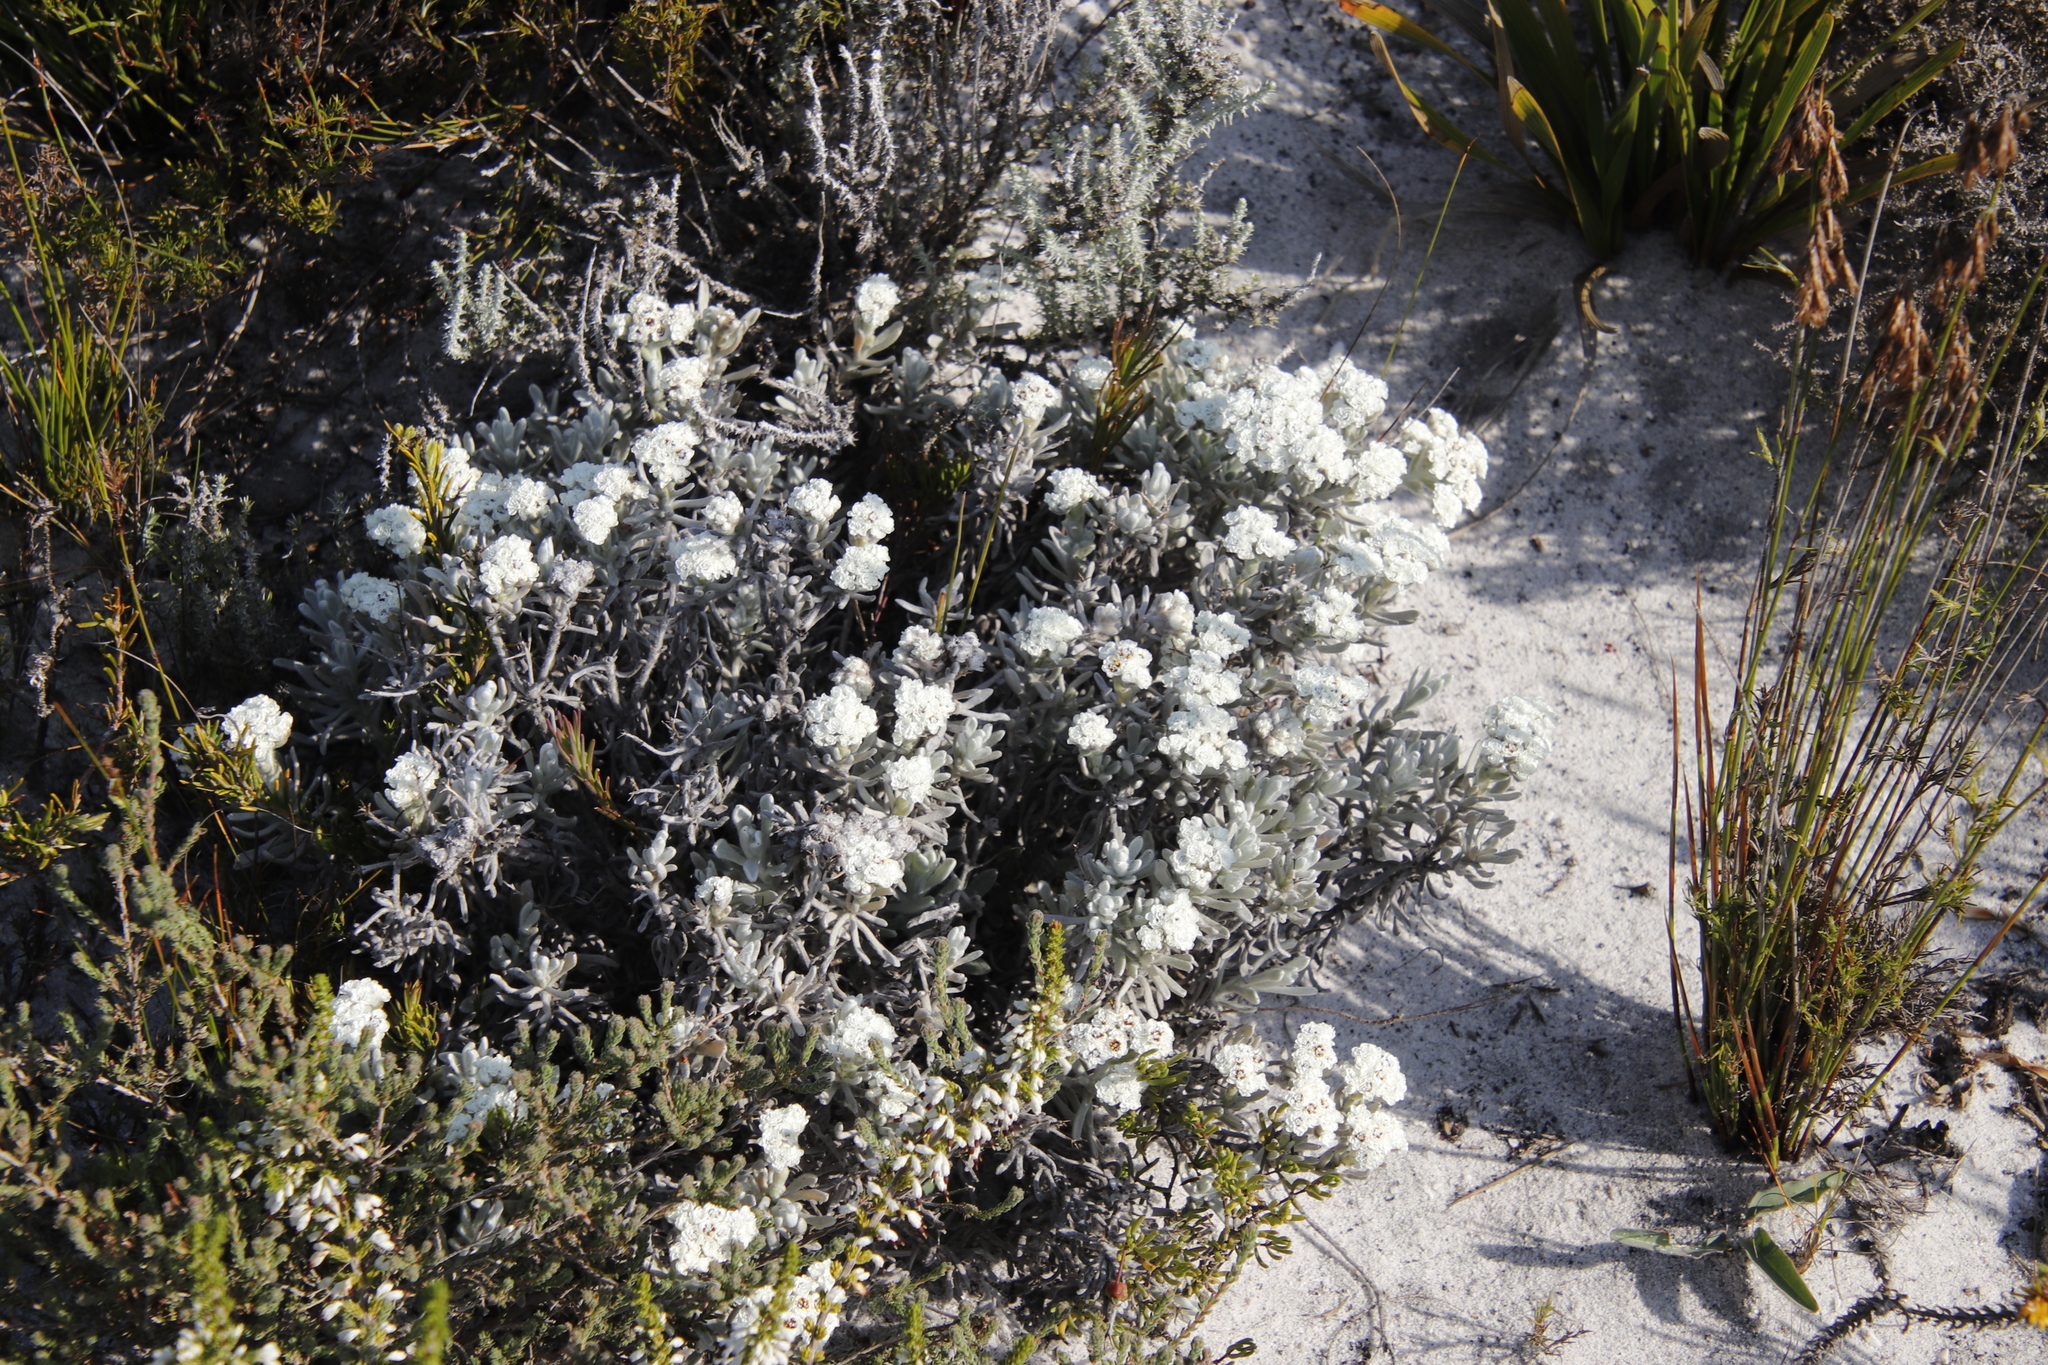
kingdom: Plantae
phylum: Tracheophyta
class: Magnoliopsida
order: Asterales
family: Asteraceae
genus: Petalacte
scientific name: Petalacte coronata
